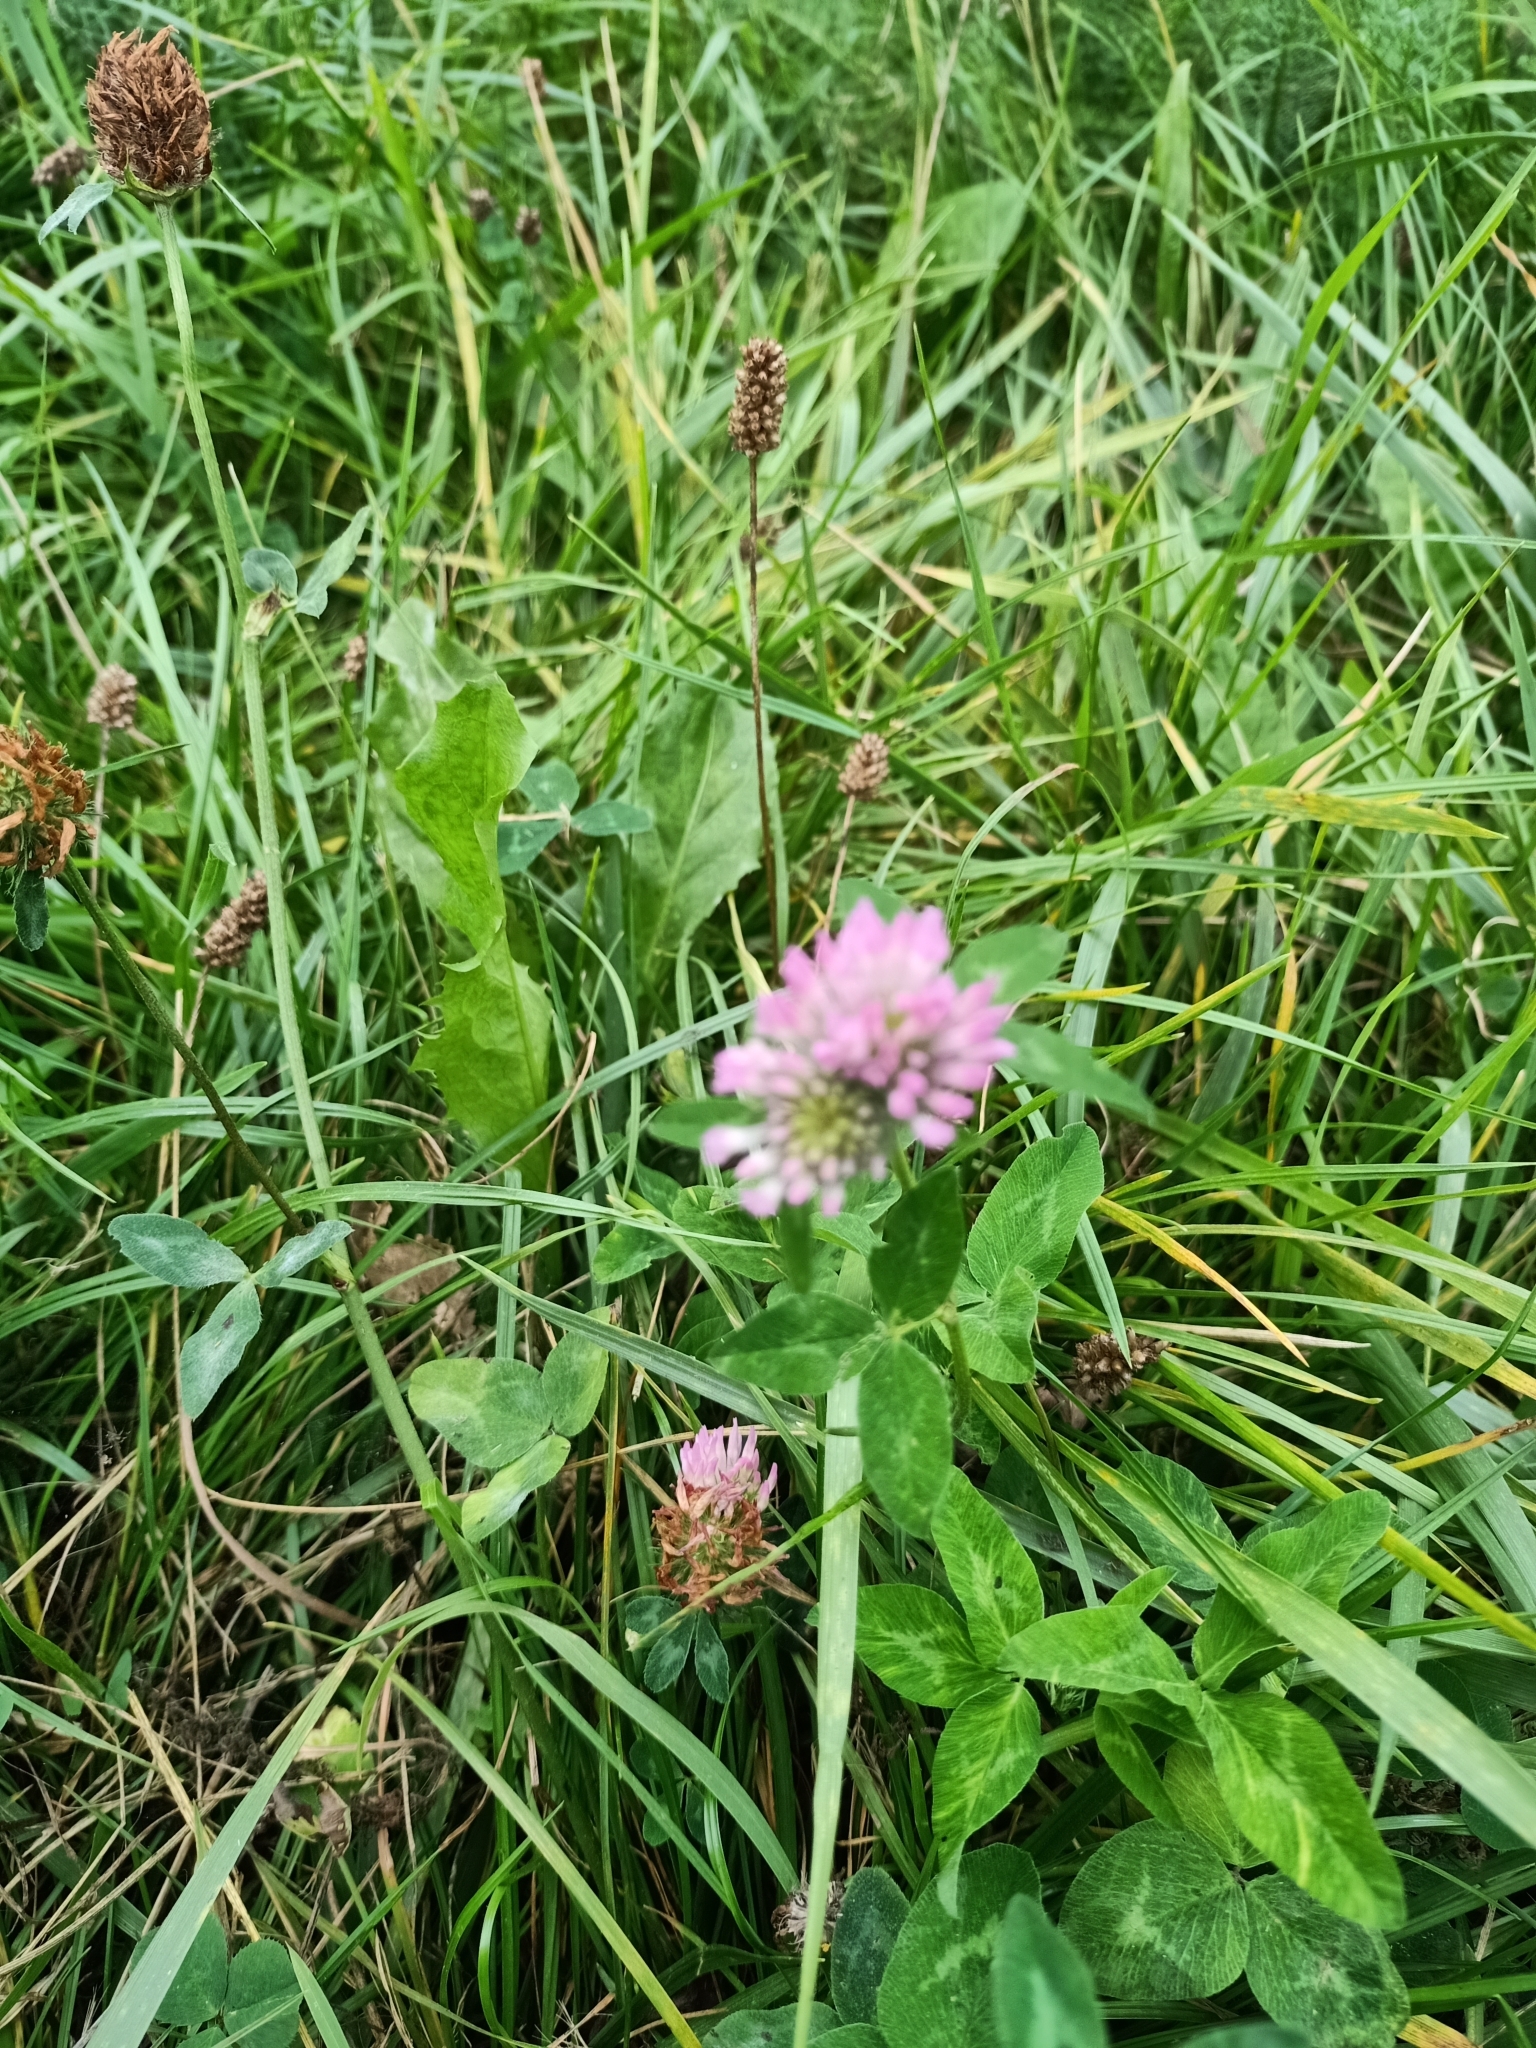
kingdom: Plantae
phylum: Tracheophyta
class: Magnoliopsida
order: Fabales
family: Fabaceae
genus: Trifolium
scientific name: Trifolium pratense
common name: Red clover
